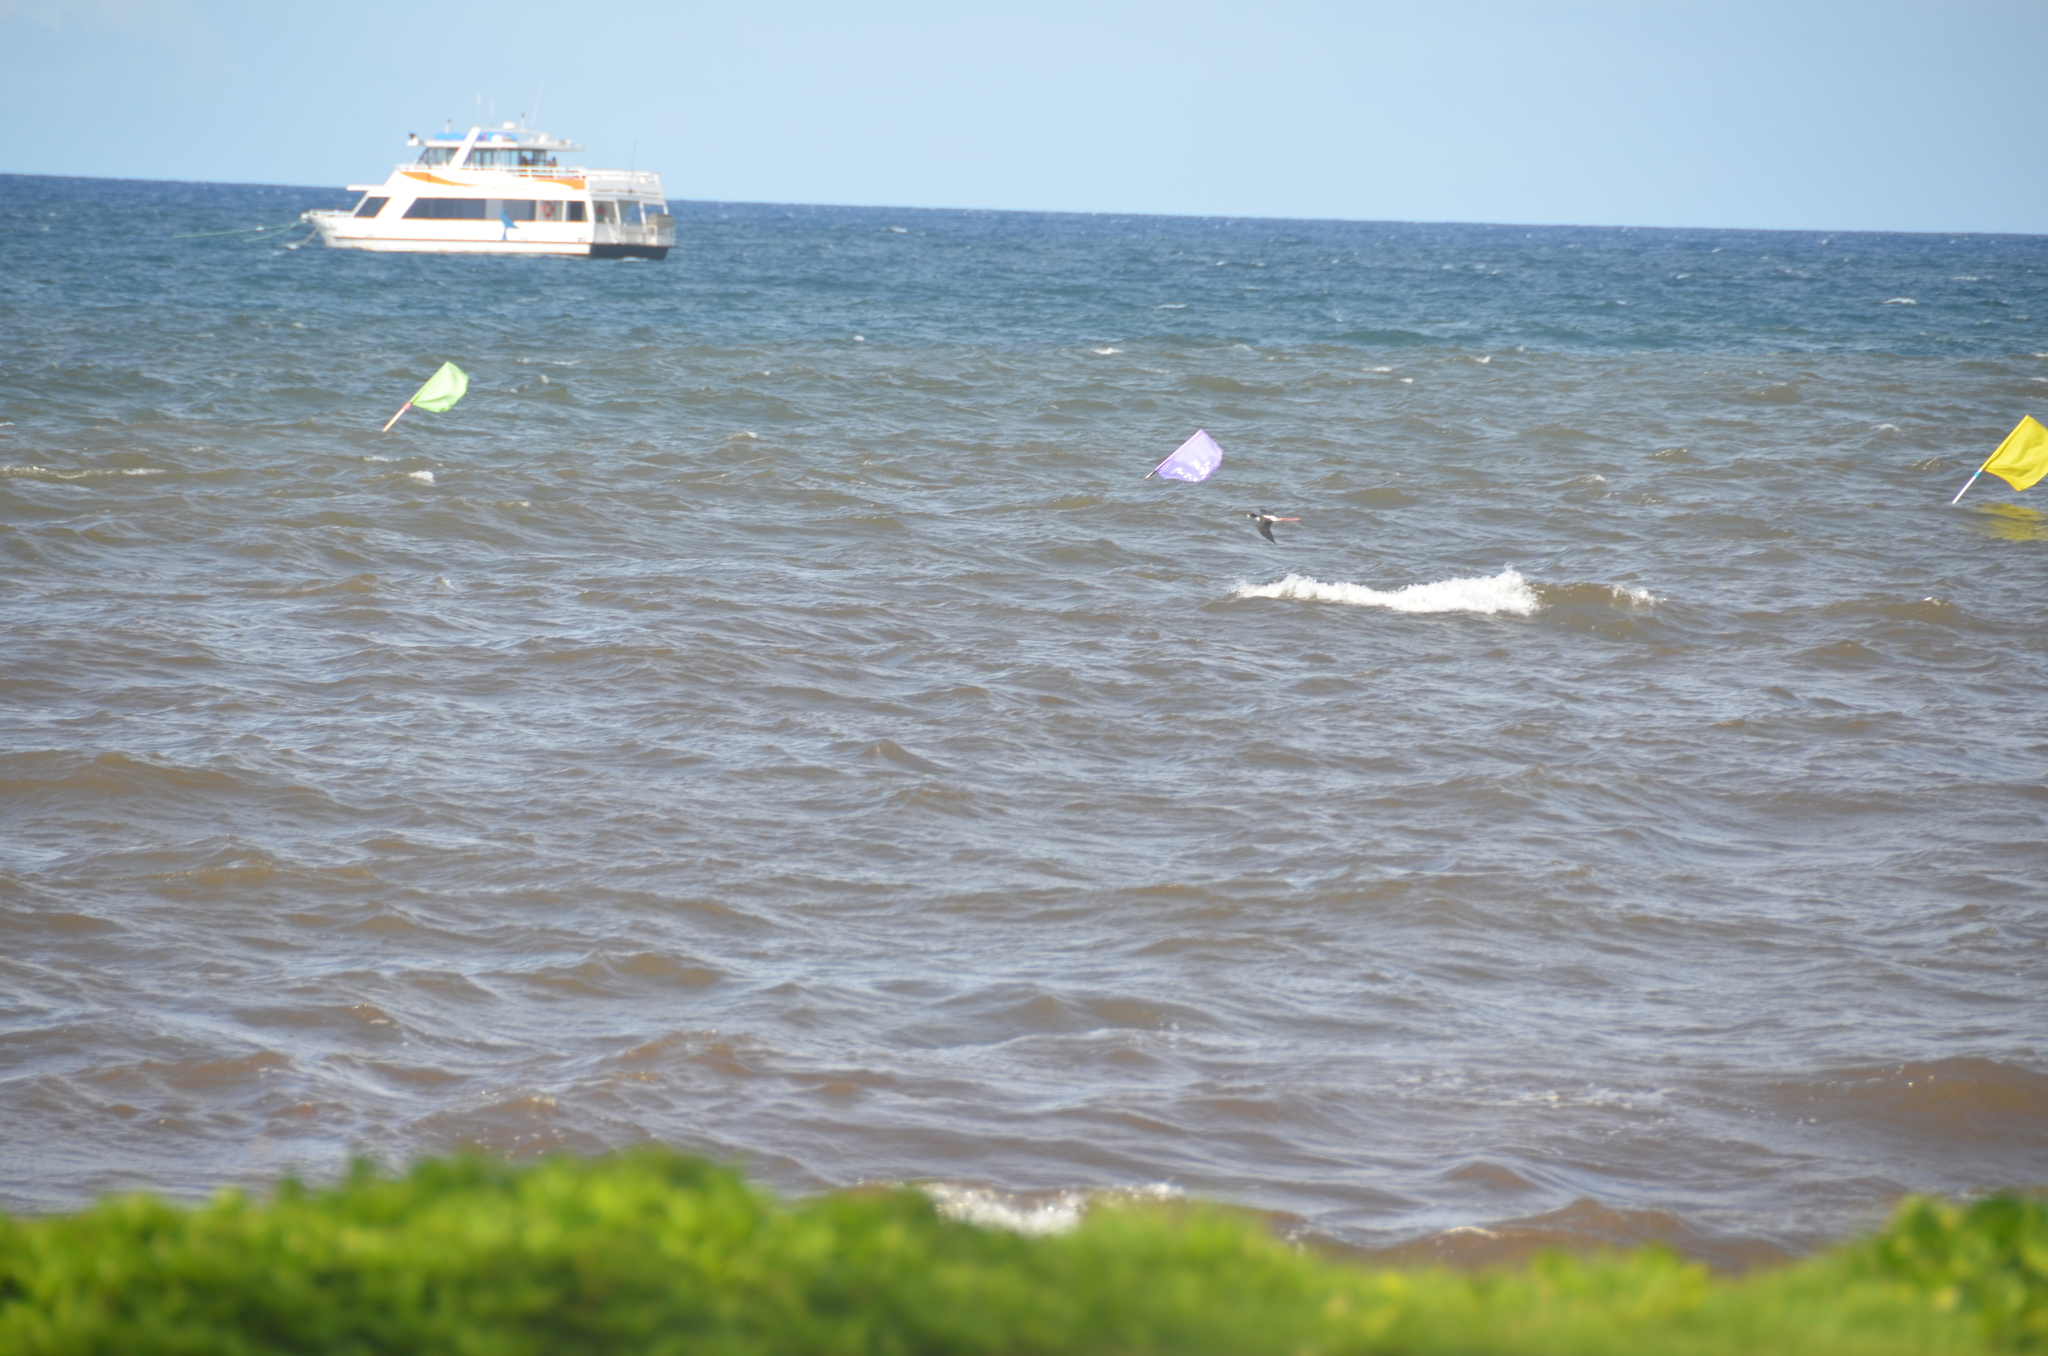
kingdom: Animalia
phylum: Chordata
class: Aves
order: Charadriiformes
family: Recurvirostridae
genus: Himantopus
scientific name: Himantopus mexicanus
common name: Black-necked stilt
